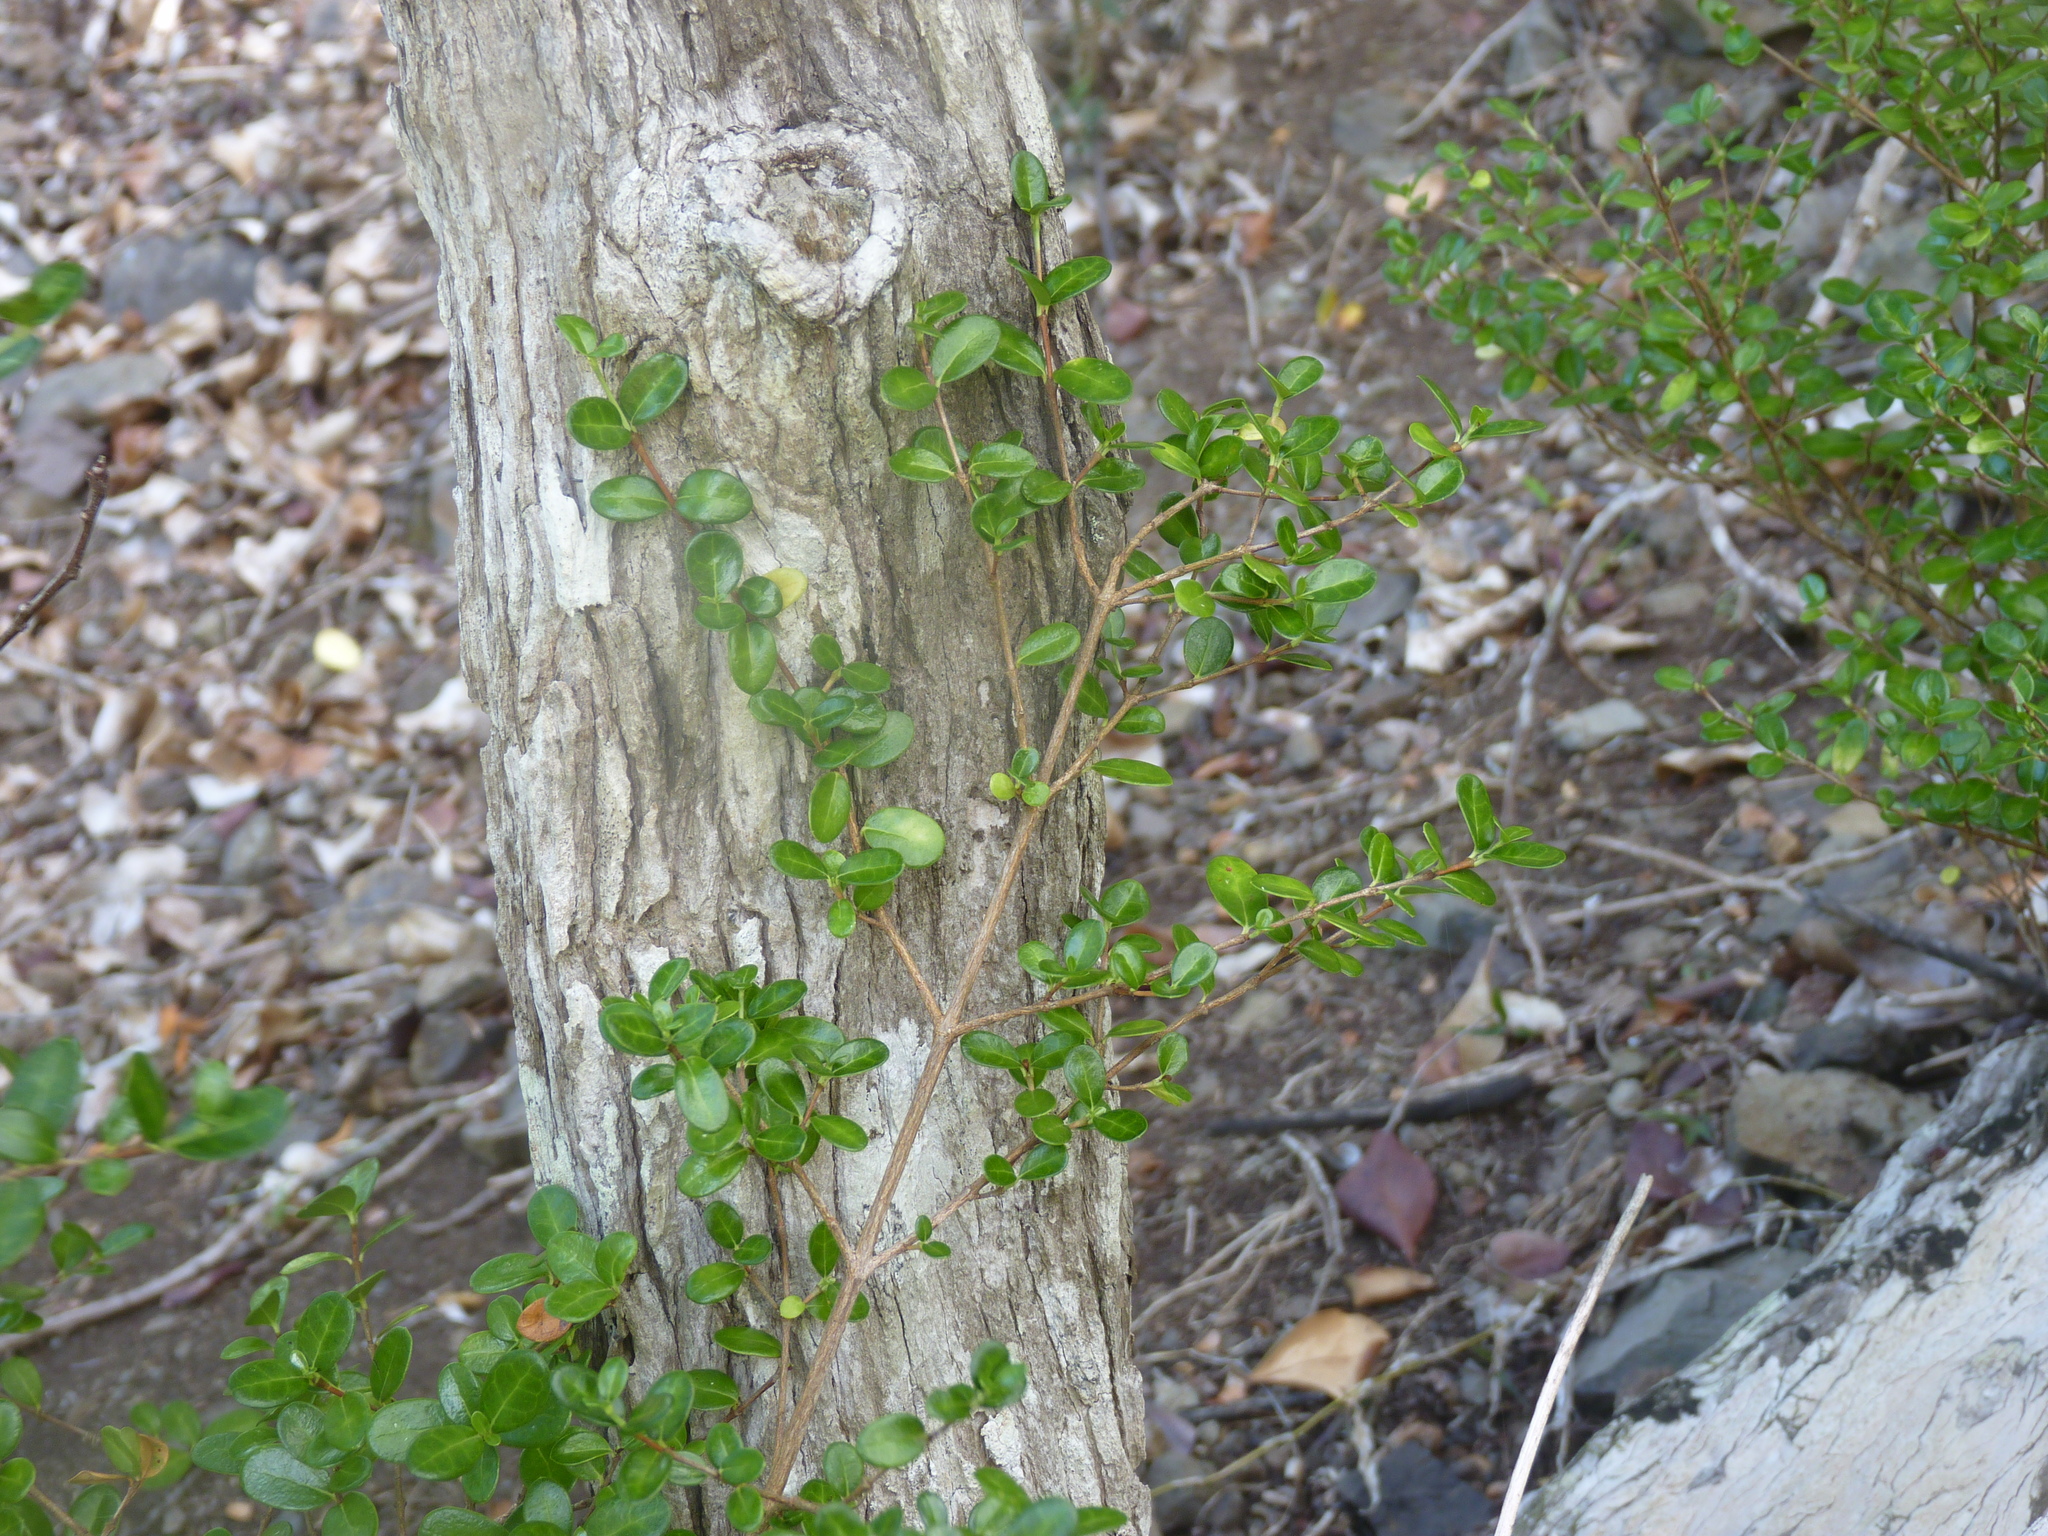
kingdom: Plantae
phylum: Tracheophyta
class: Magnoliopsida
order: Gentianales
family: Rubiaceae
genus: Fernelia
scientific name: Fernelia buxifolia
